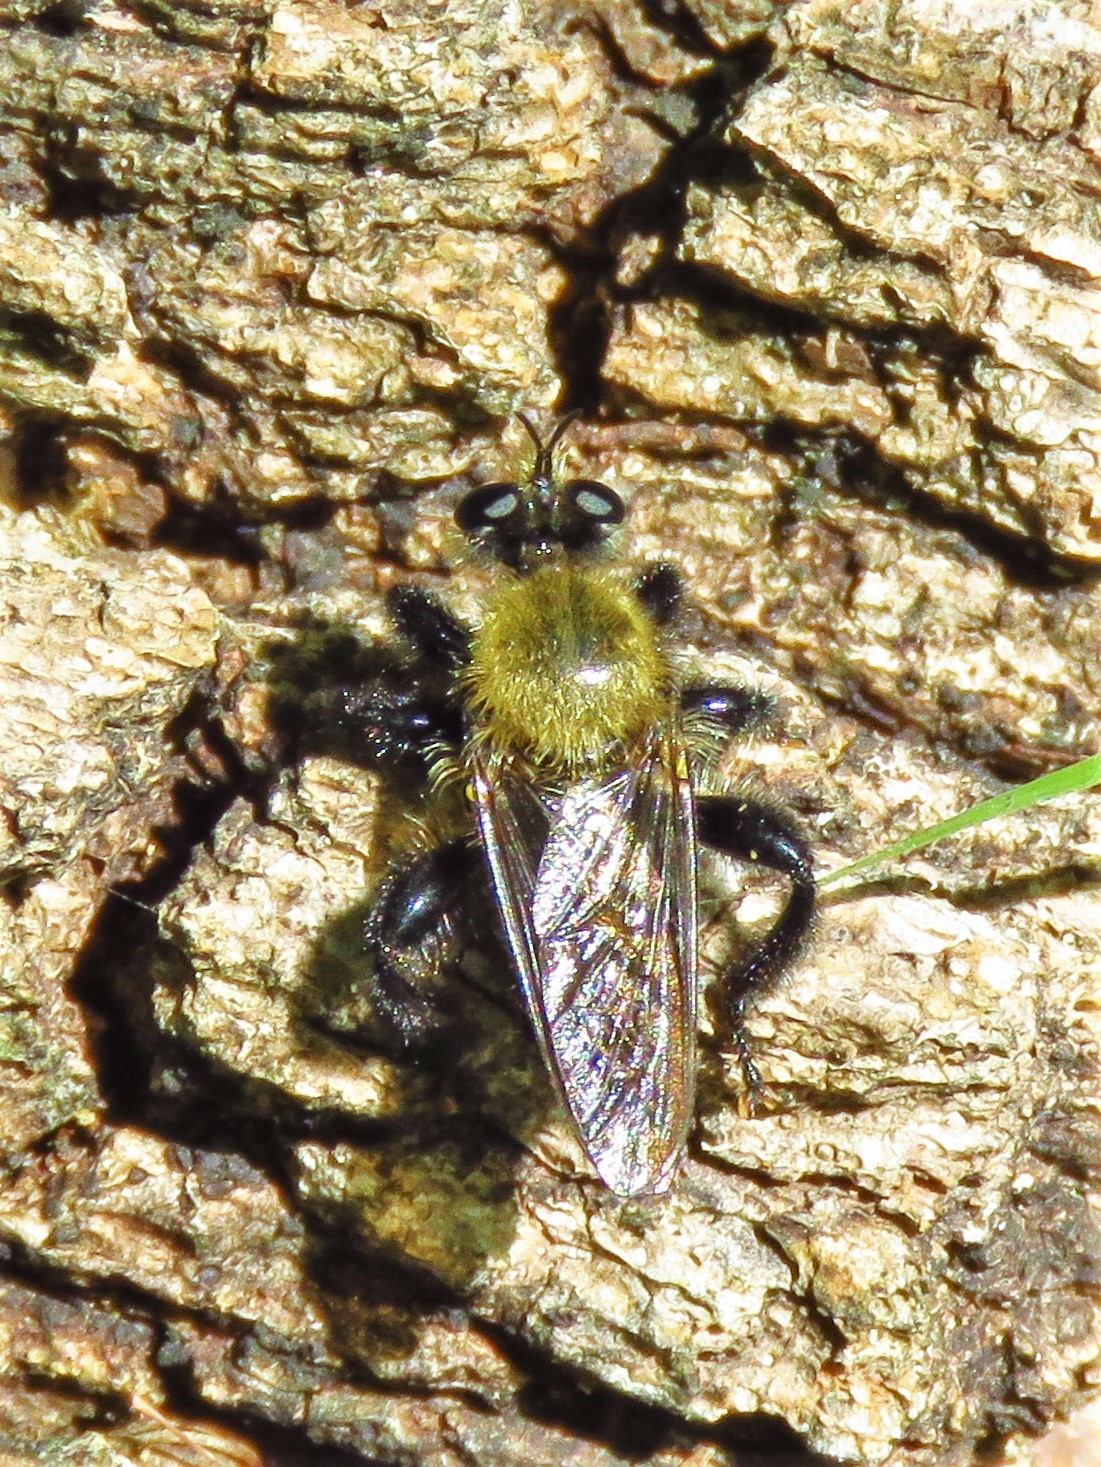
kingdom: Animalia
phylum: Arthropoda
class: Insecta
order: Diptera
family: Asilidae
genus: Laphria
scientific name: Laphria flavicollis
